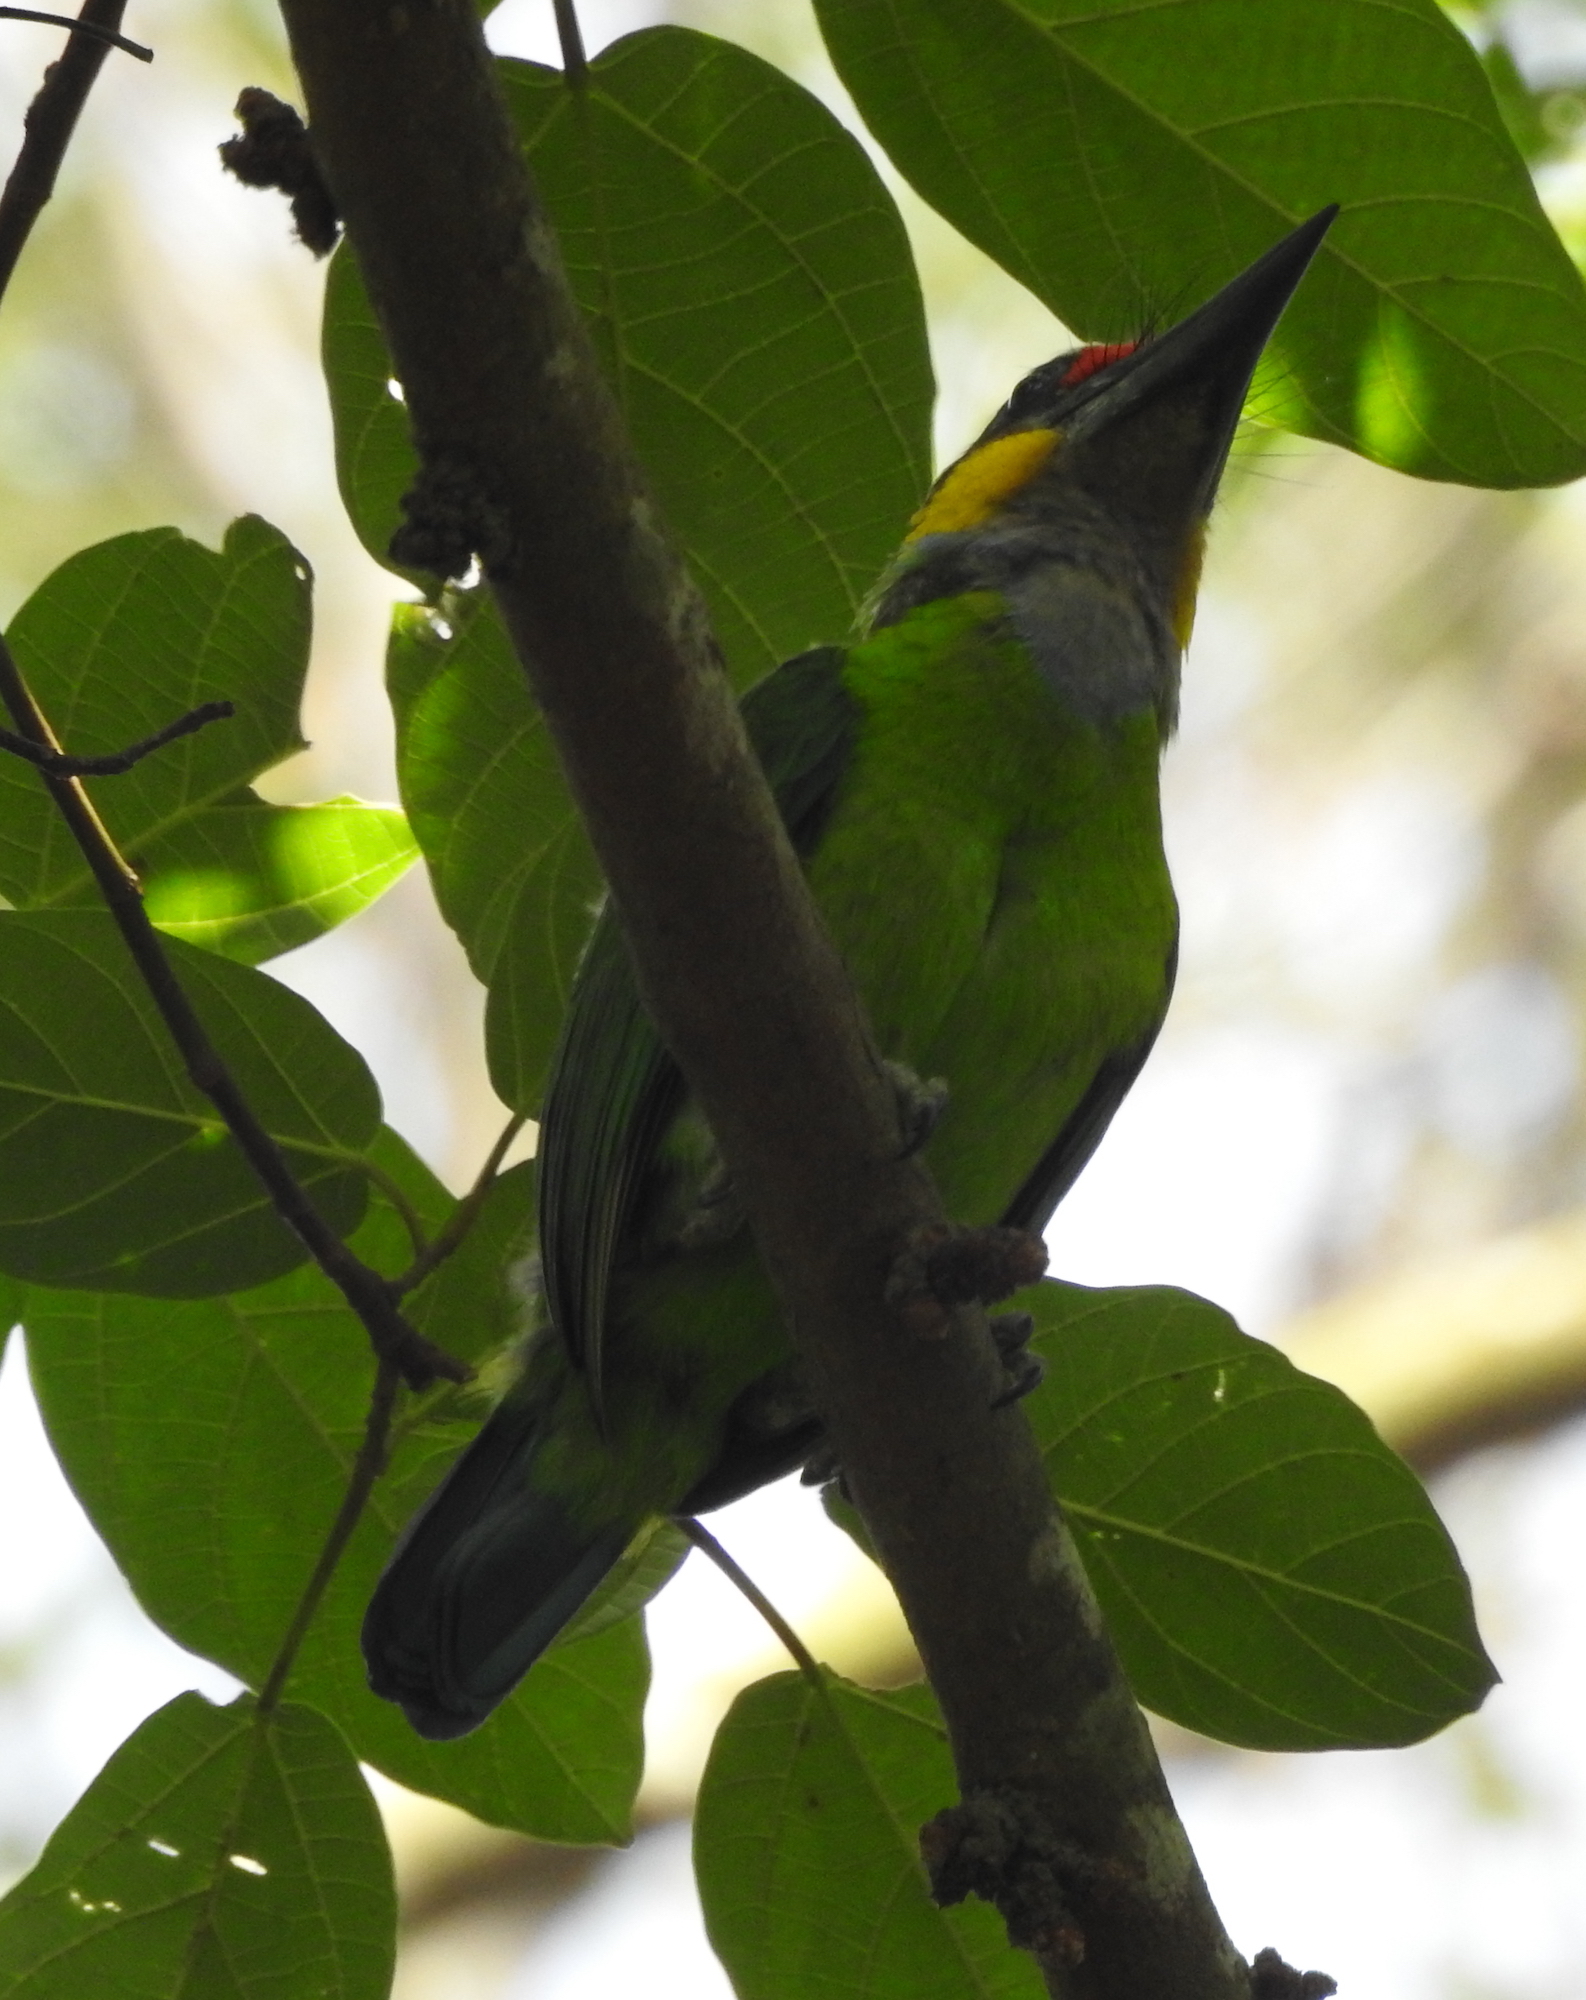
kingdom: Animalia
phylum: Chordata
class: Aves
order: Piciformes
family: Megalaimidae
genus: Psilopogon
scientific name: Psilopogon chrysopogon
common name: Golden-whiskered barbet
